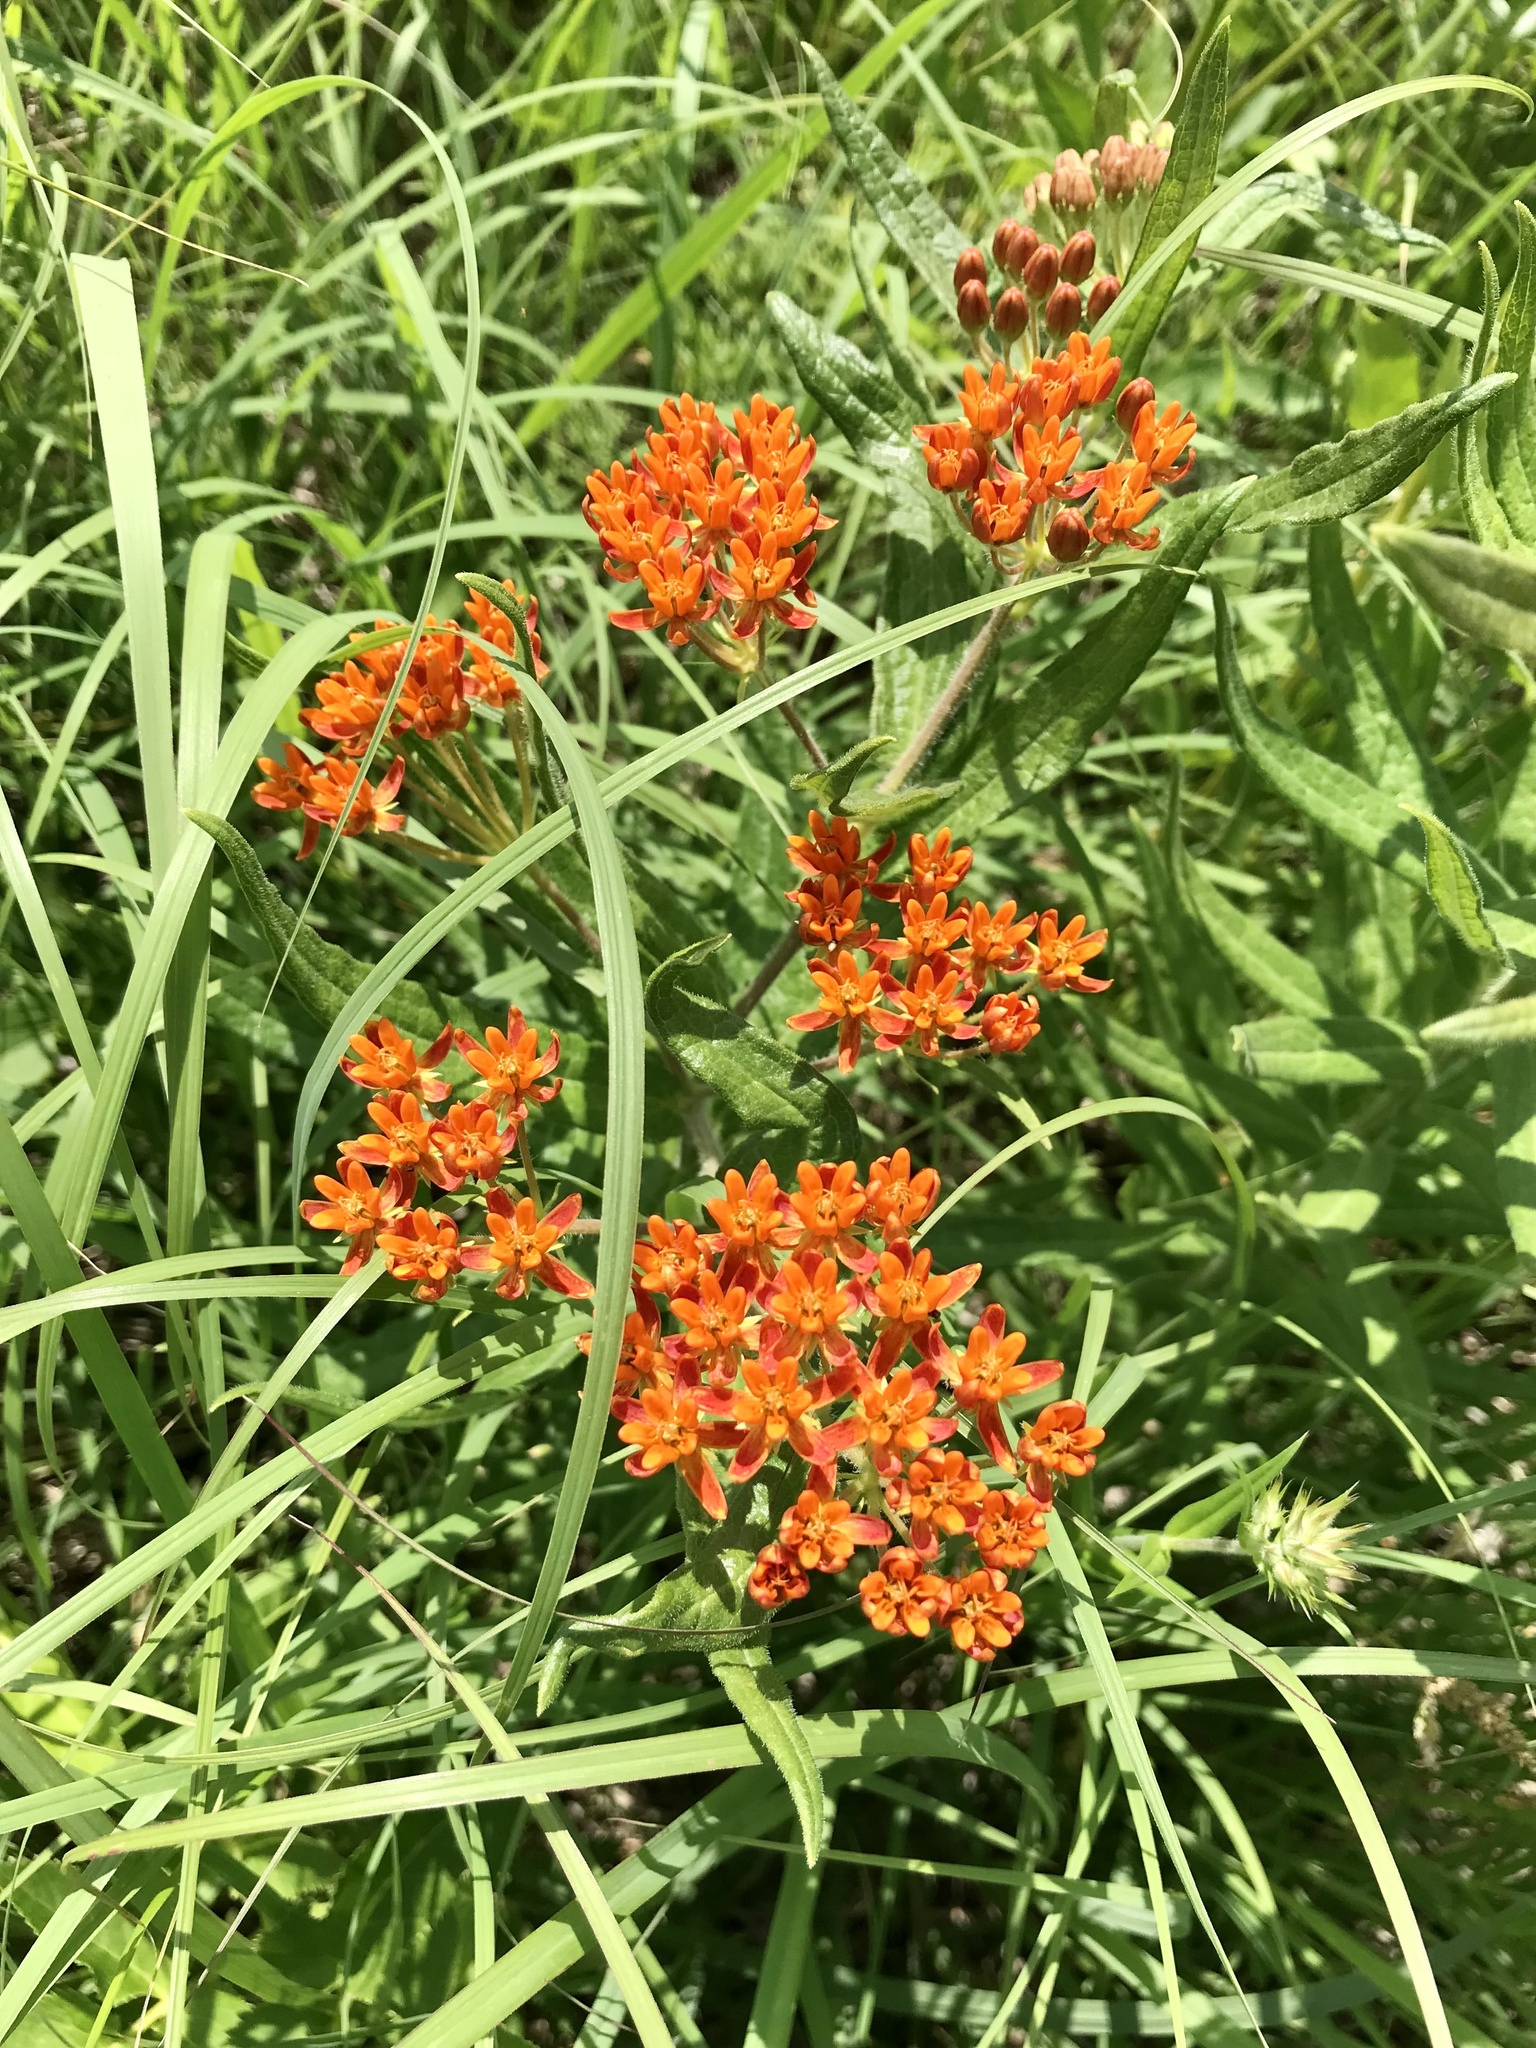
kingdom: Plantae
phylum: Tracheophyta
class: Magnoliopsida
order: Gentianales
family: Apocynaceae
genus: Asclepias
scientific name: Asclepias tuberosa
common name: Butterfly milkweed
